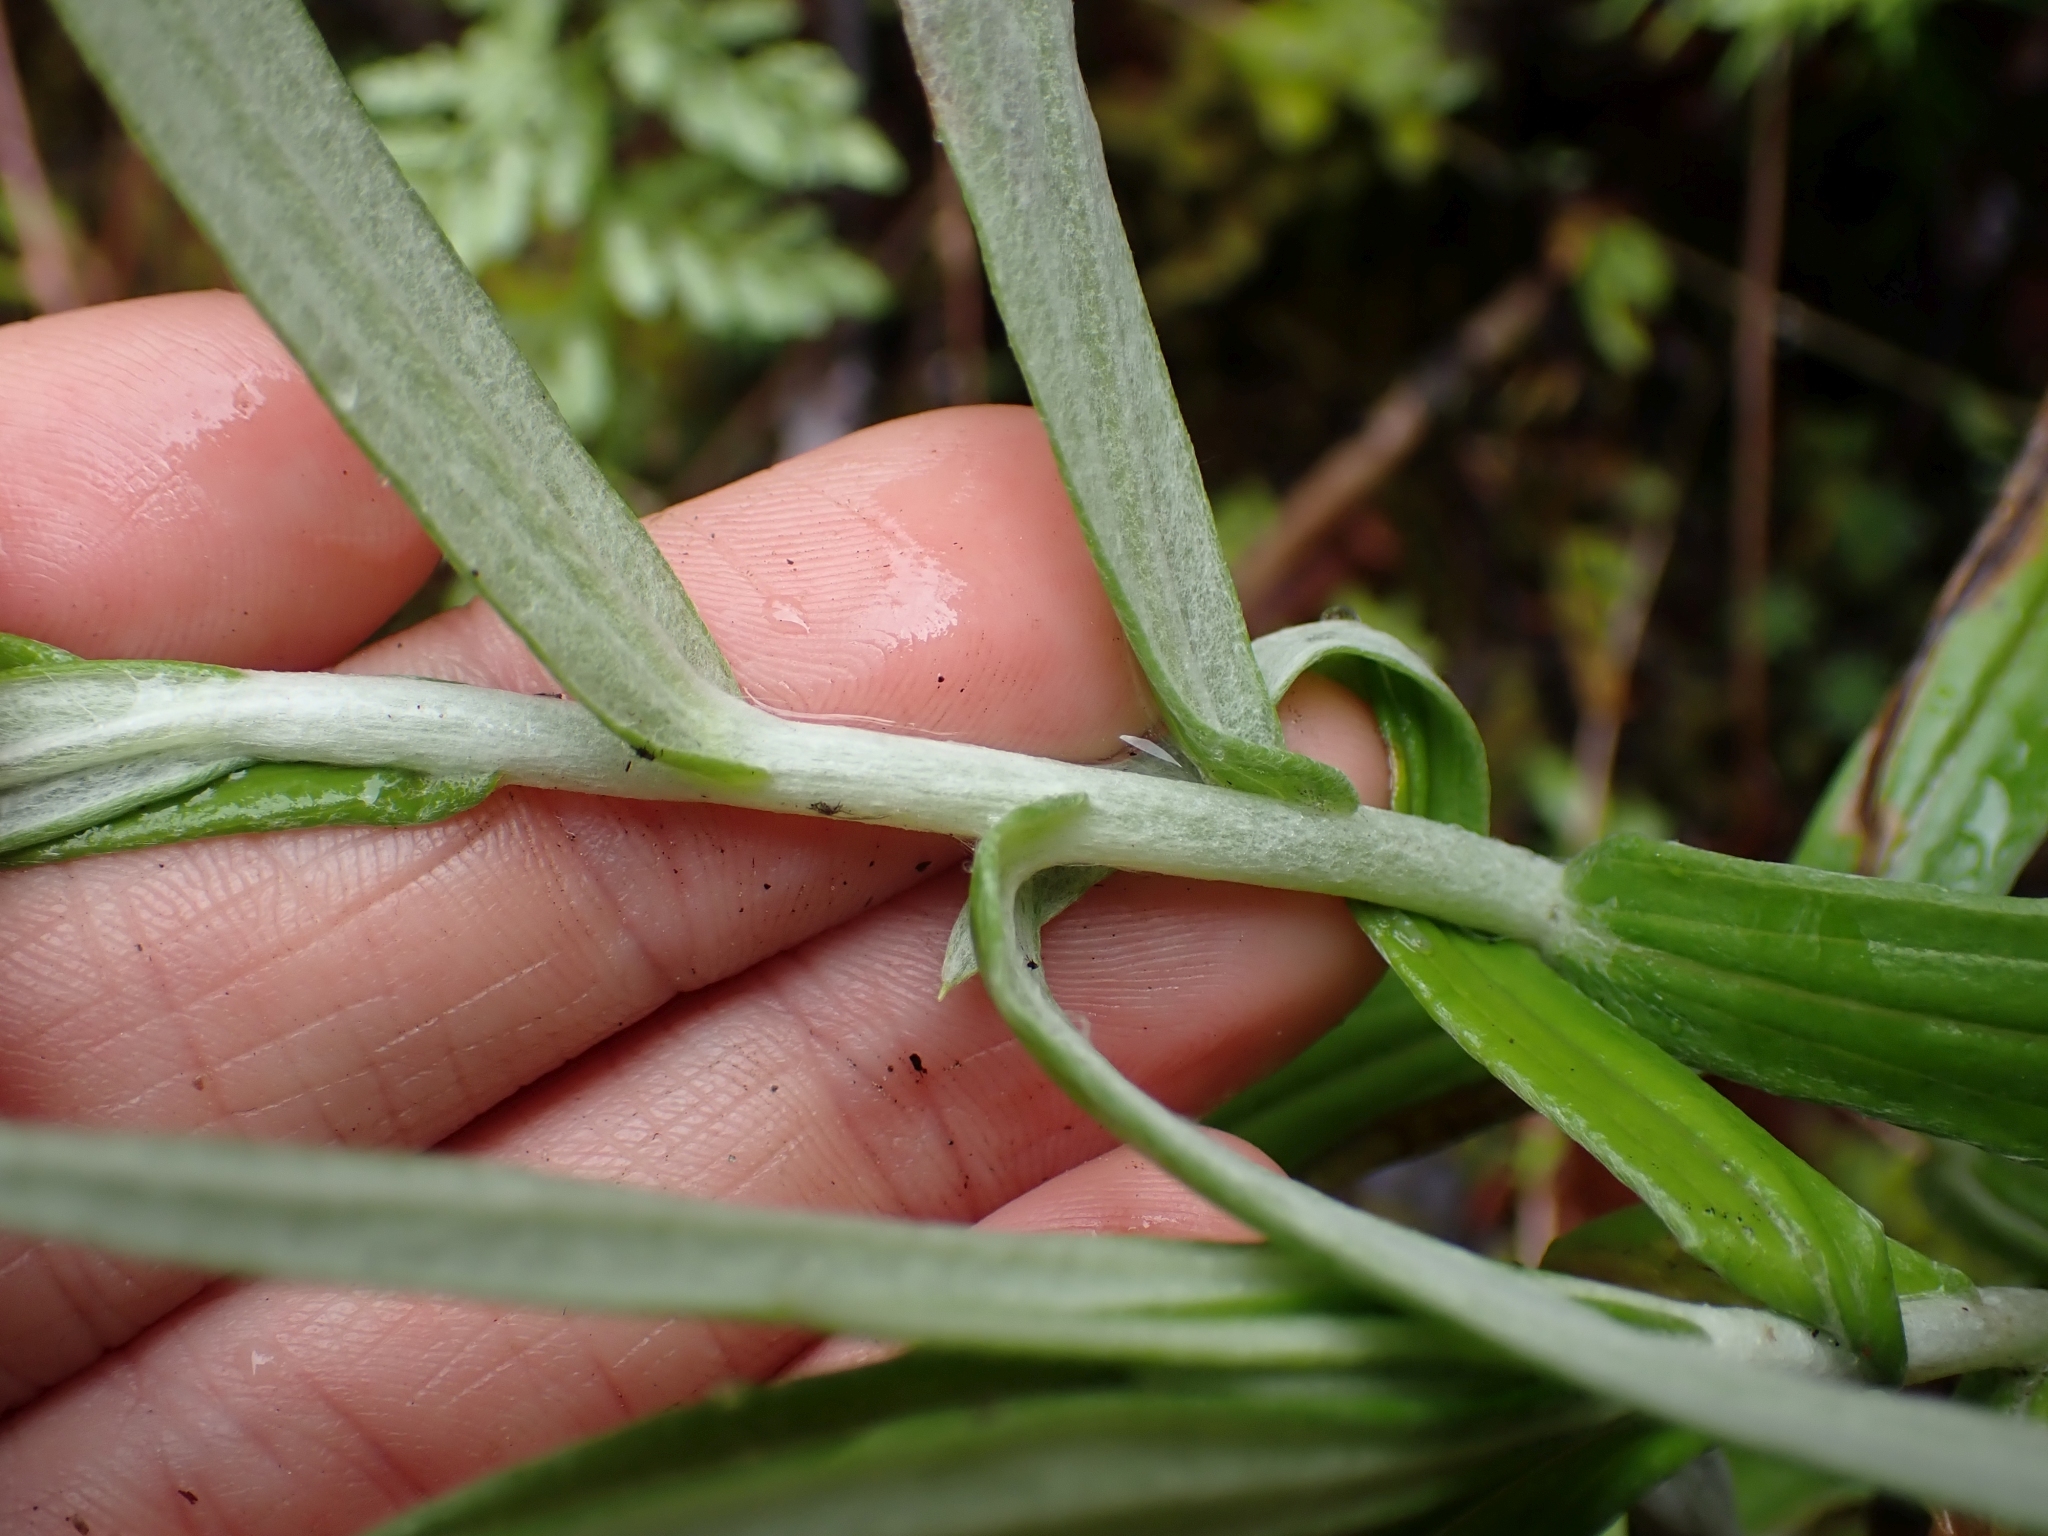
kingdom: Plantae
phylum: Tracheophyta
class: Magnoliopsida
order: Asterales
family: Asteraceae
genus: Anaphalis
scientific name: Anaphalis margaritacea
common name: Pearly everlasting
